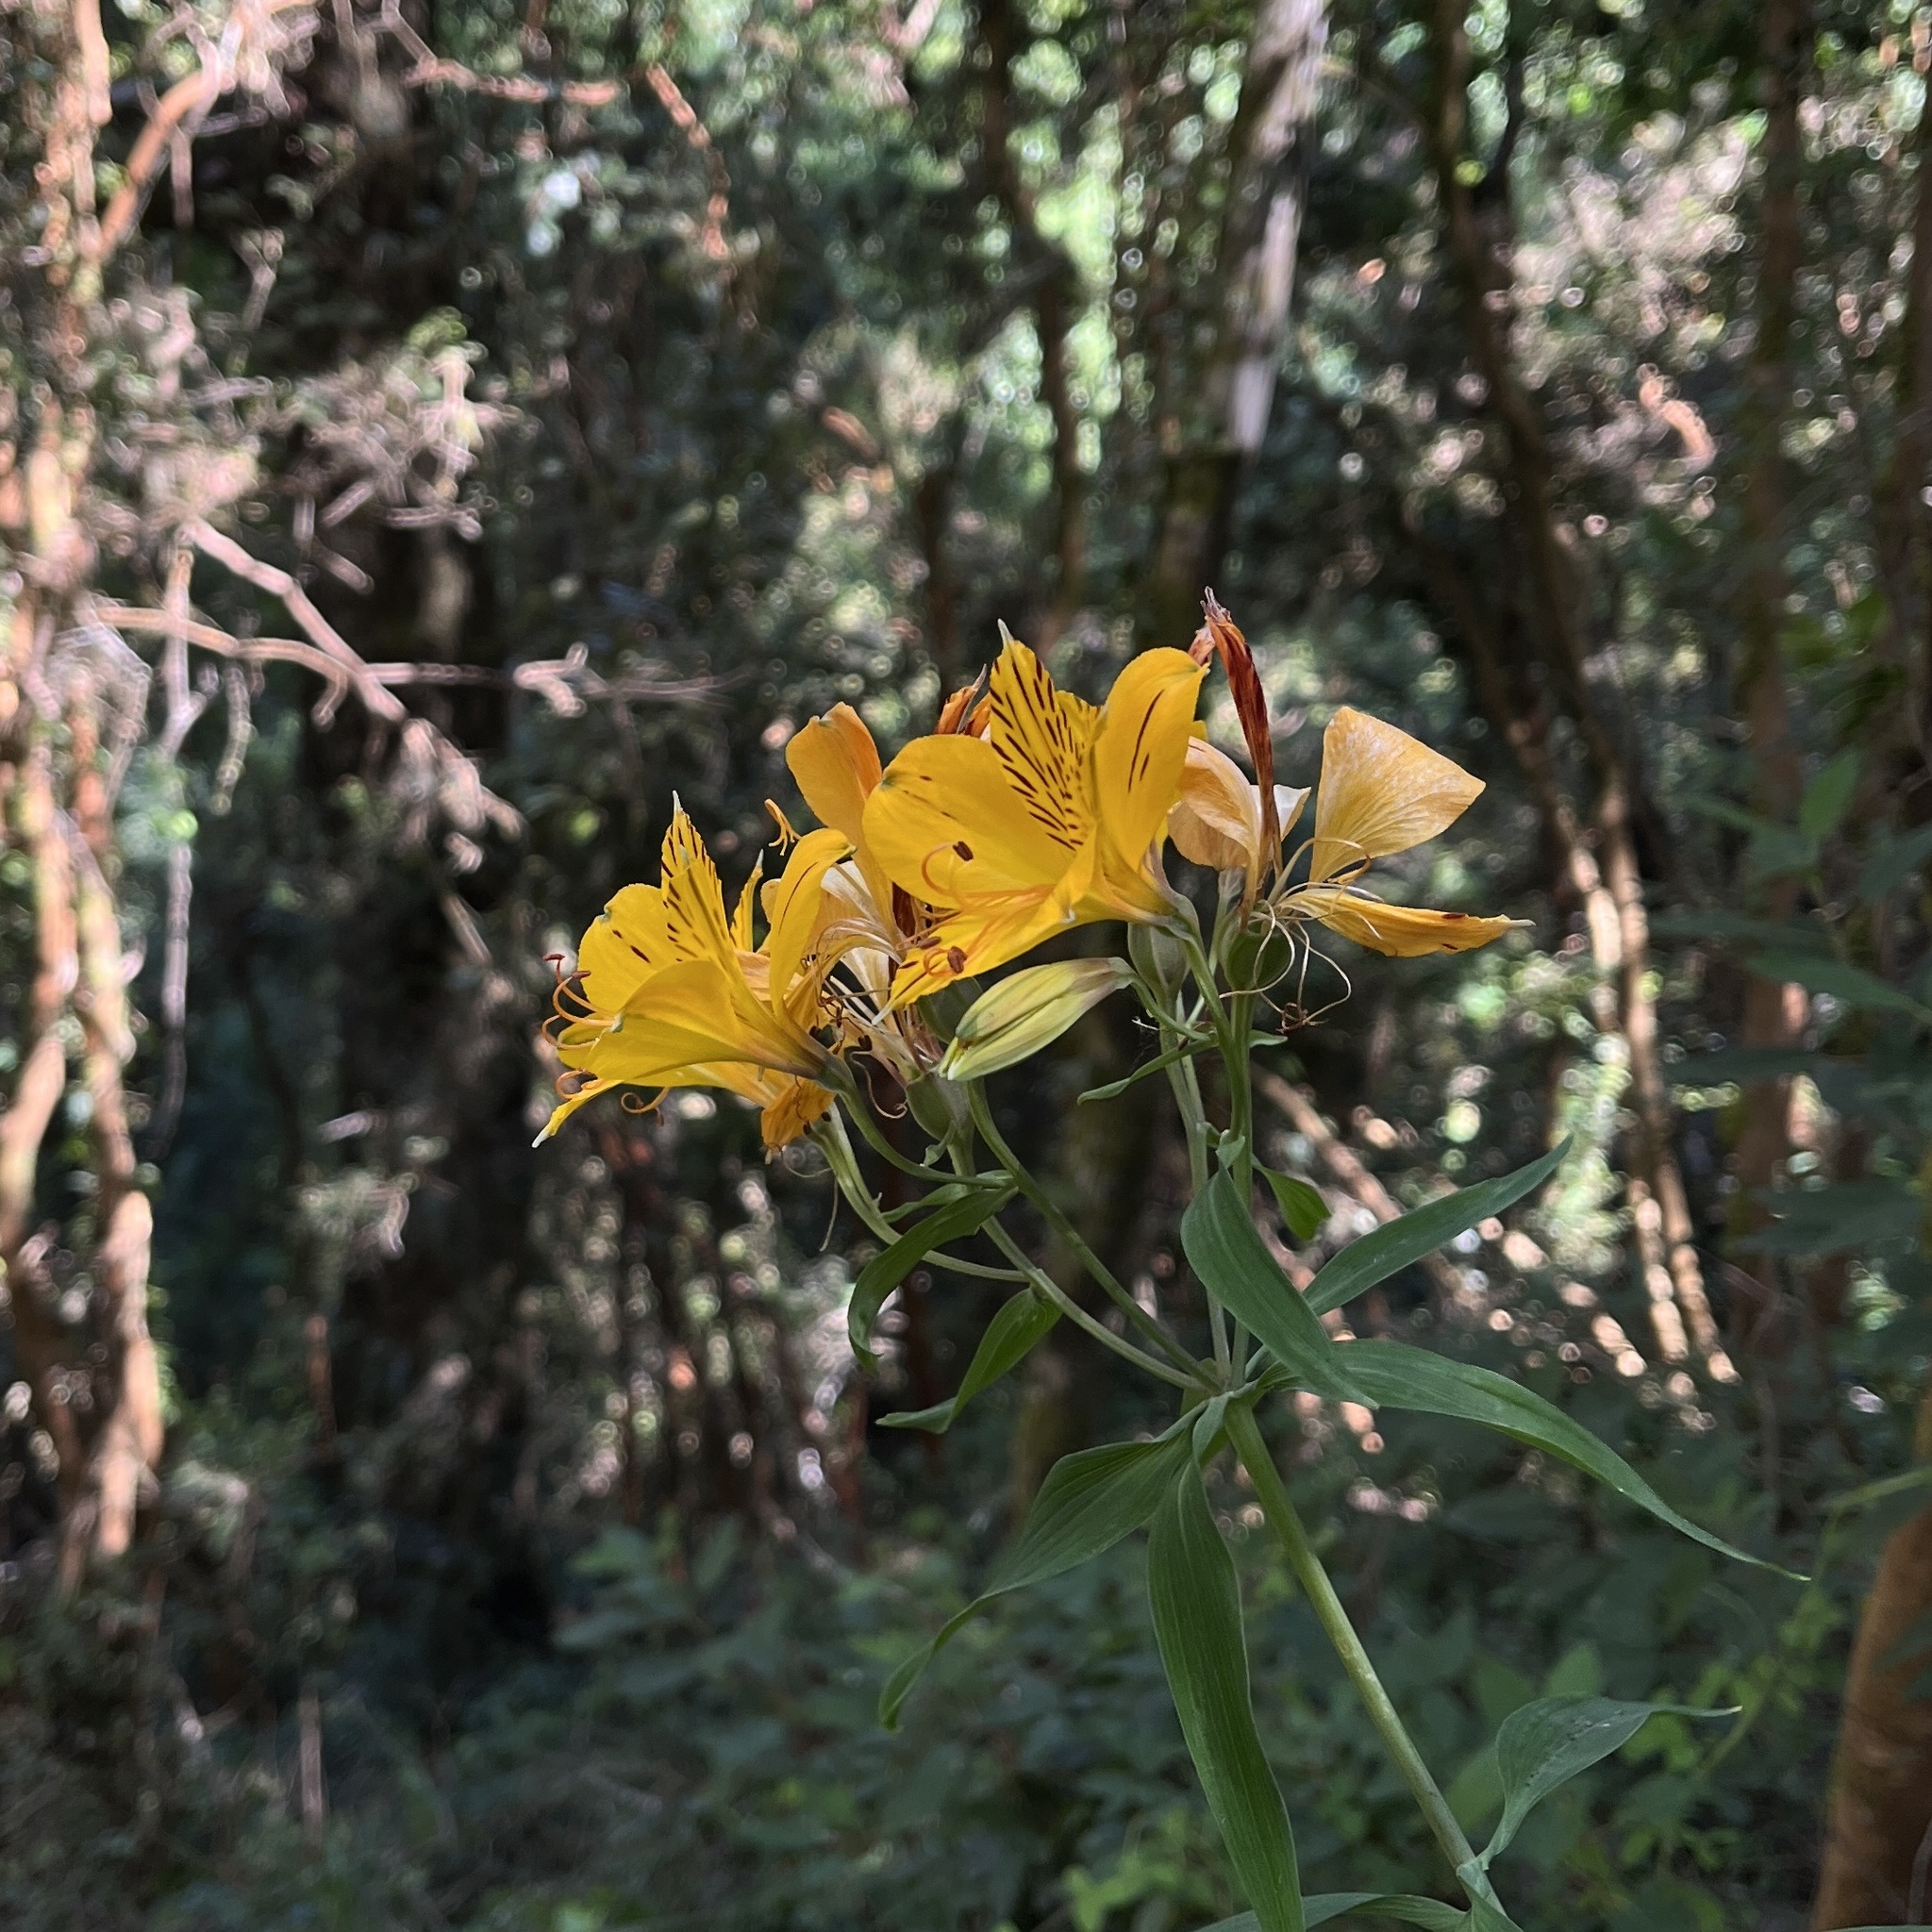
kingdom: Plantae
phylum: Tracheophyta
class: Liliopsida
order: Liliales
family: Alstroemeriaceae
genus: Alstroemeria
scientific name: Alstroemeria aurea
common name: Peruvian lily
